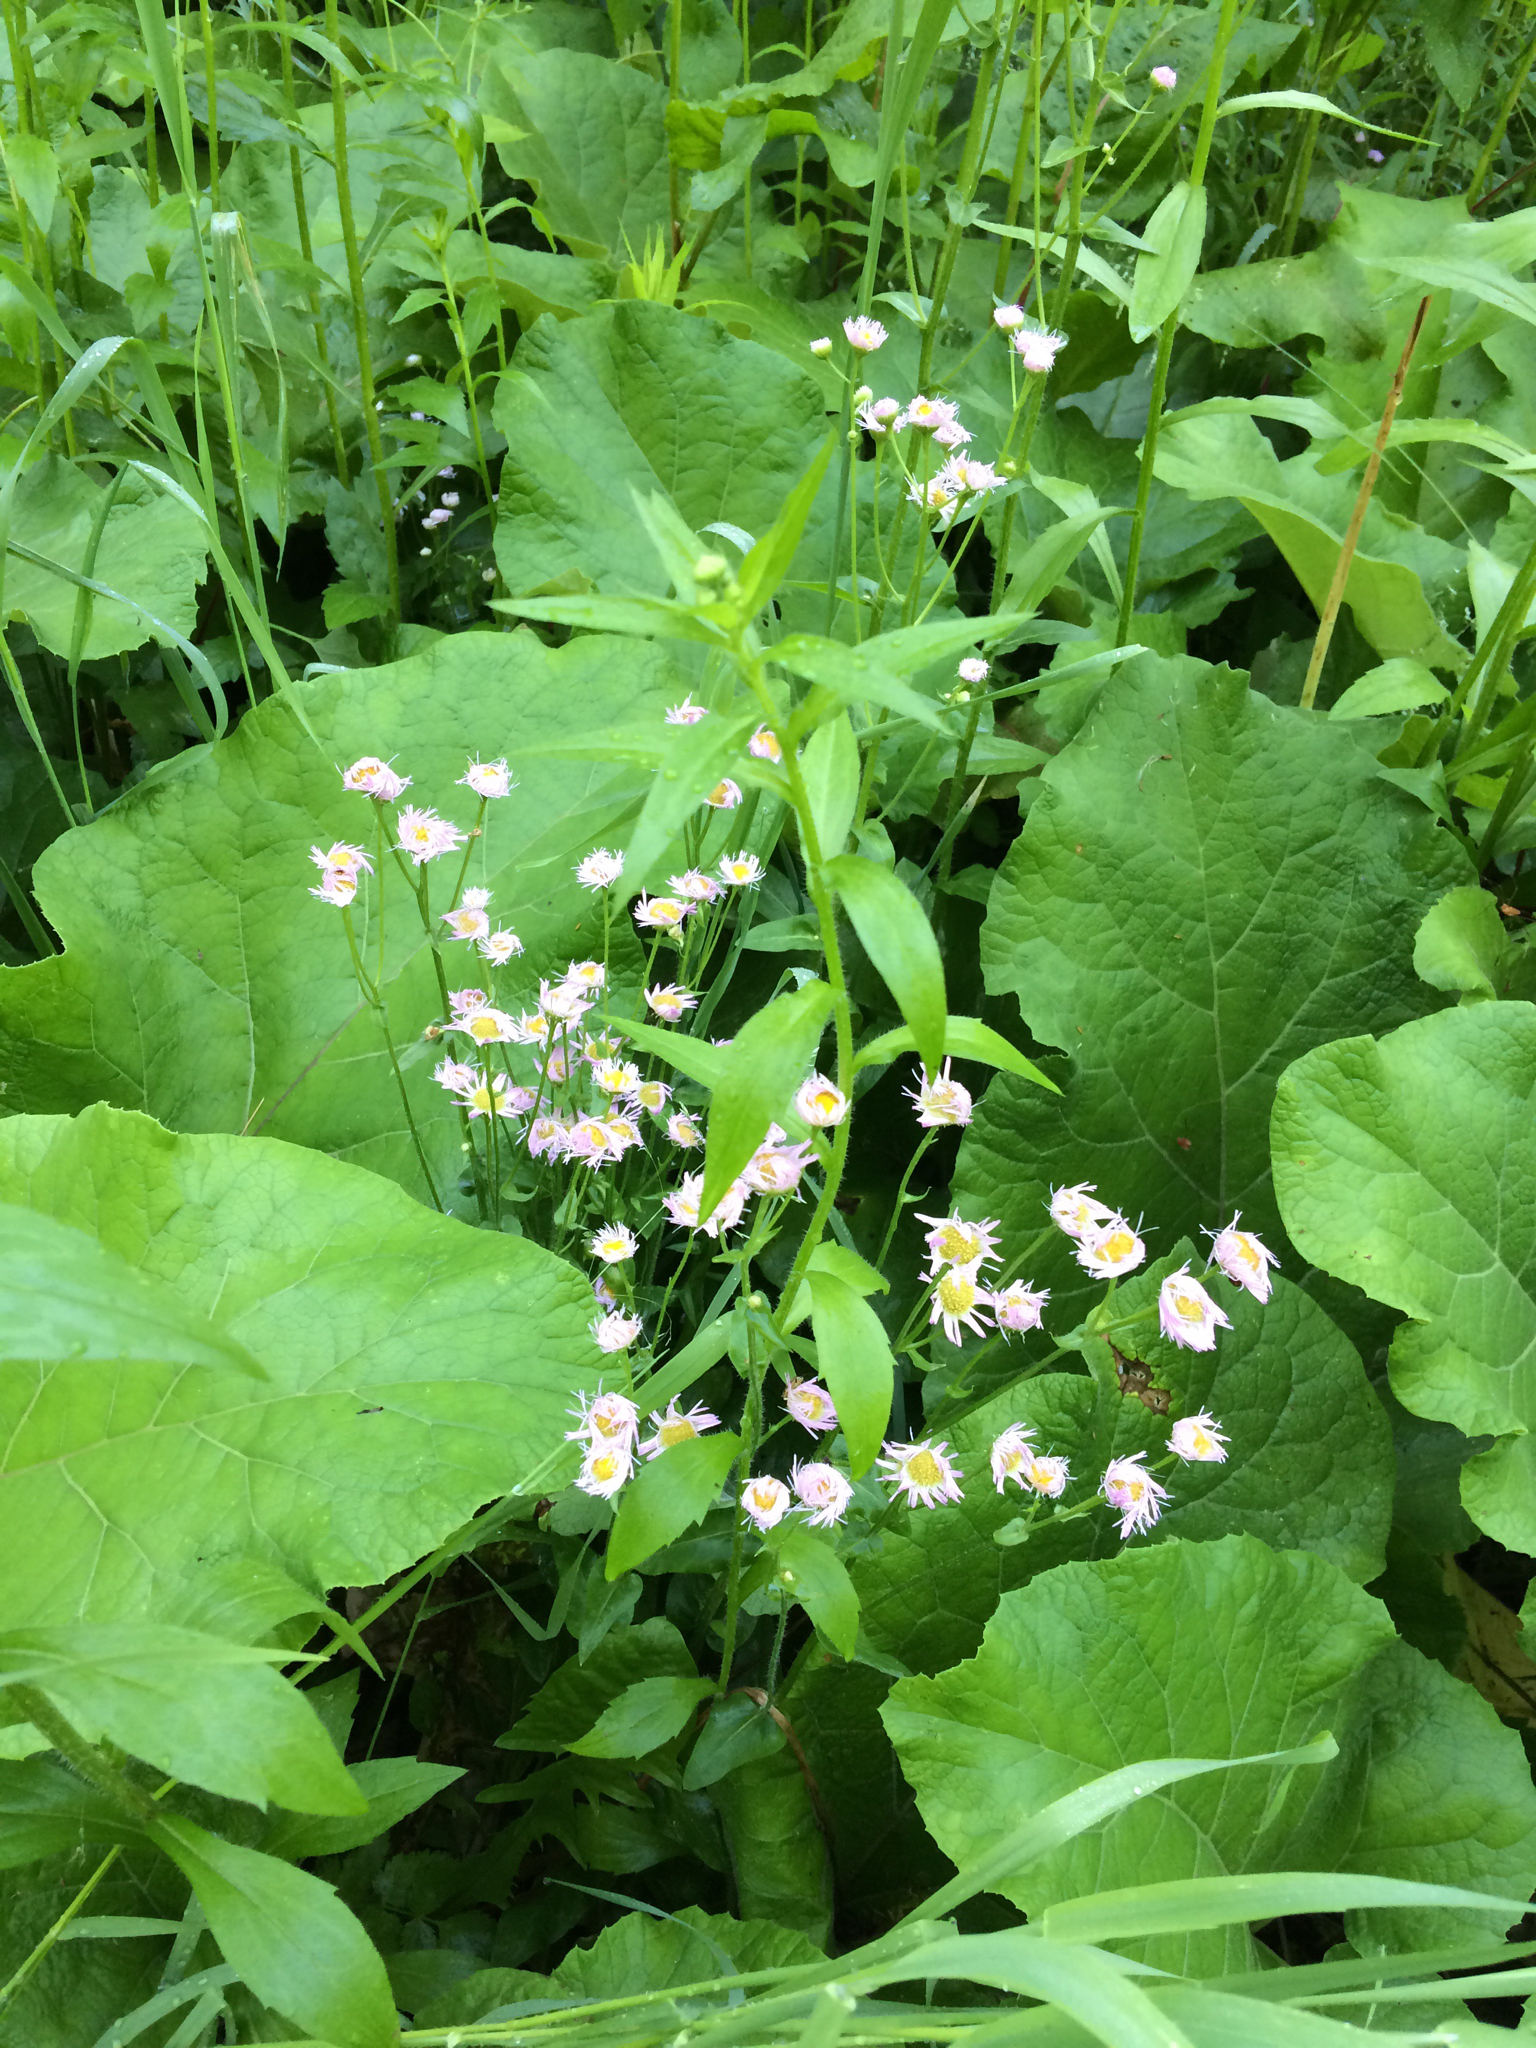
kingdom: Plantae
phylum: Tracheophyta
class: Magnoliopsida
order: Asterales
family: Asteraceae
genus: Erigeron
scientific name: Erigeron philadelphicus
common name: Robin's-plantain
